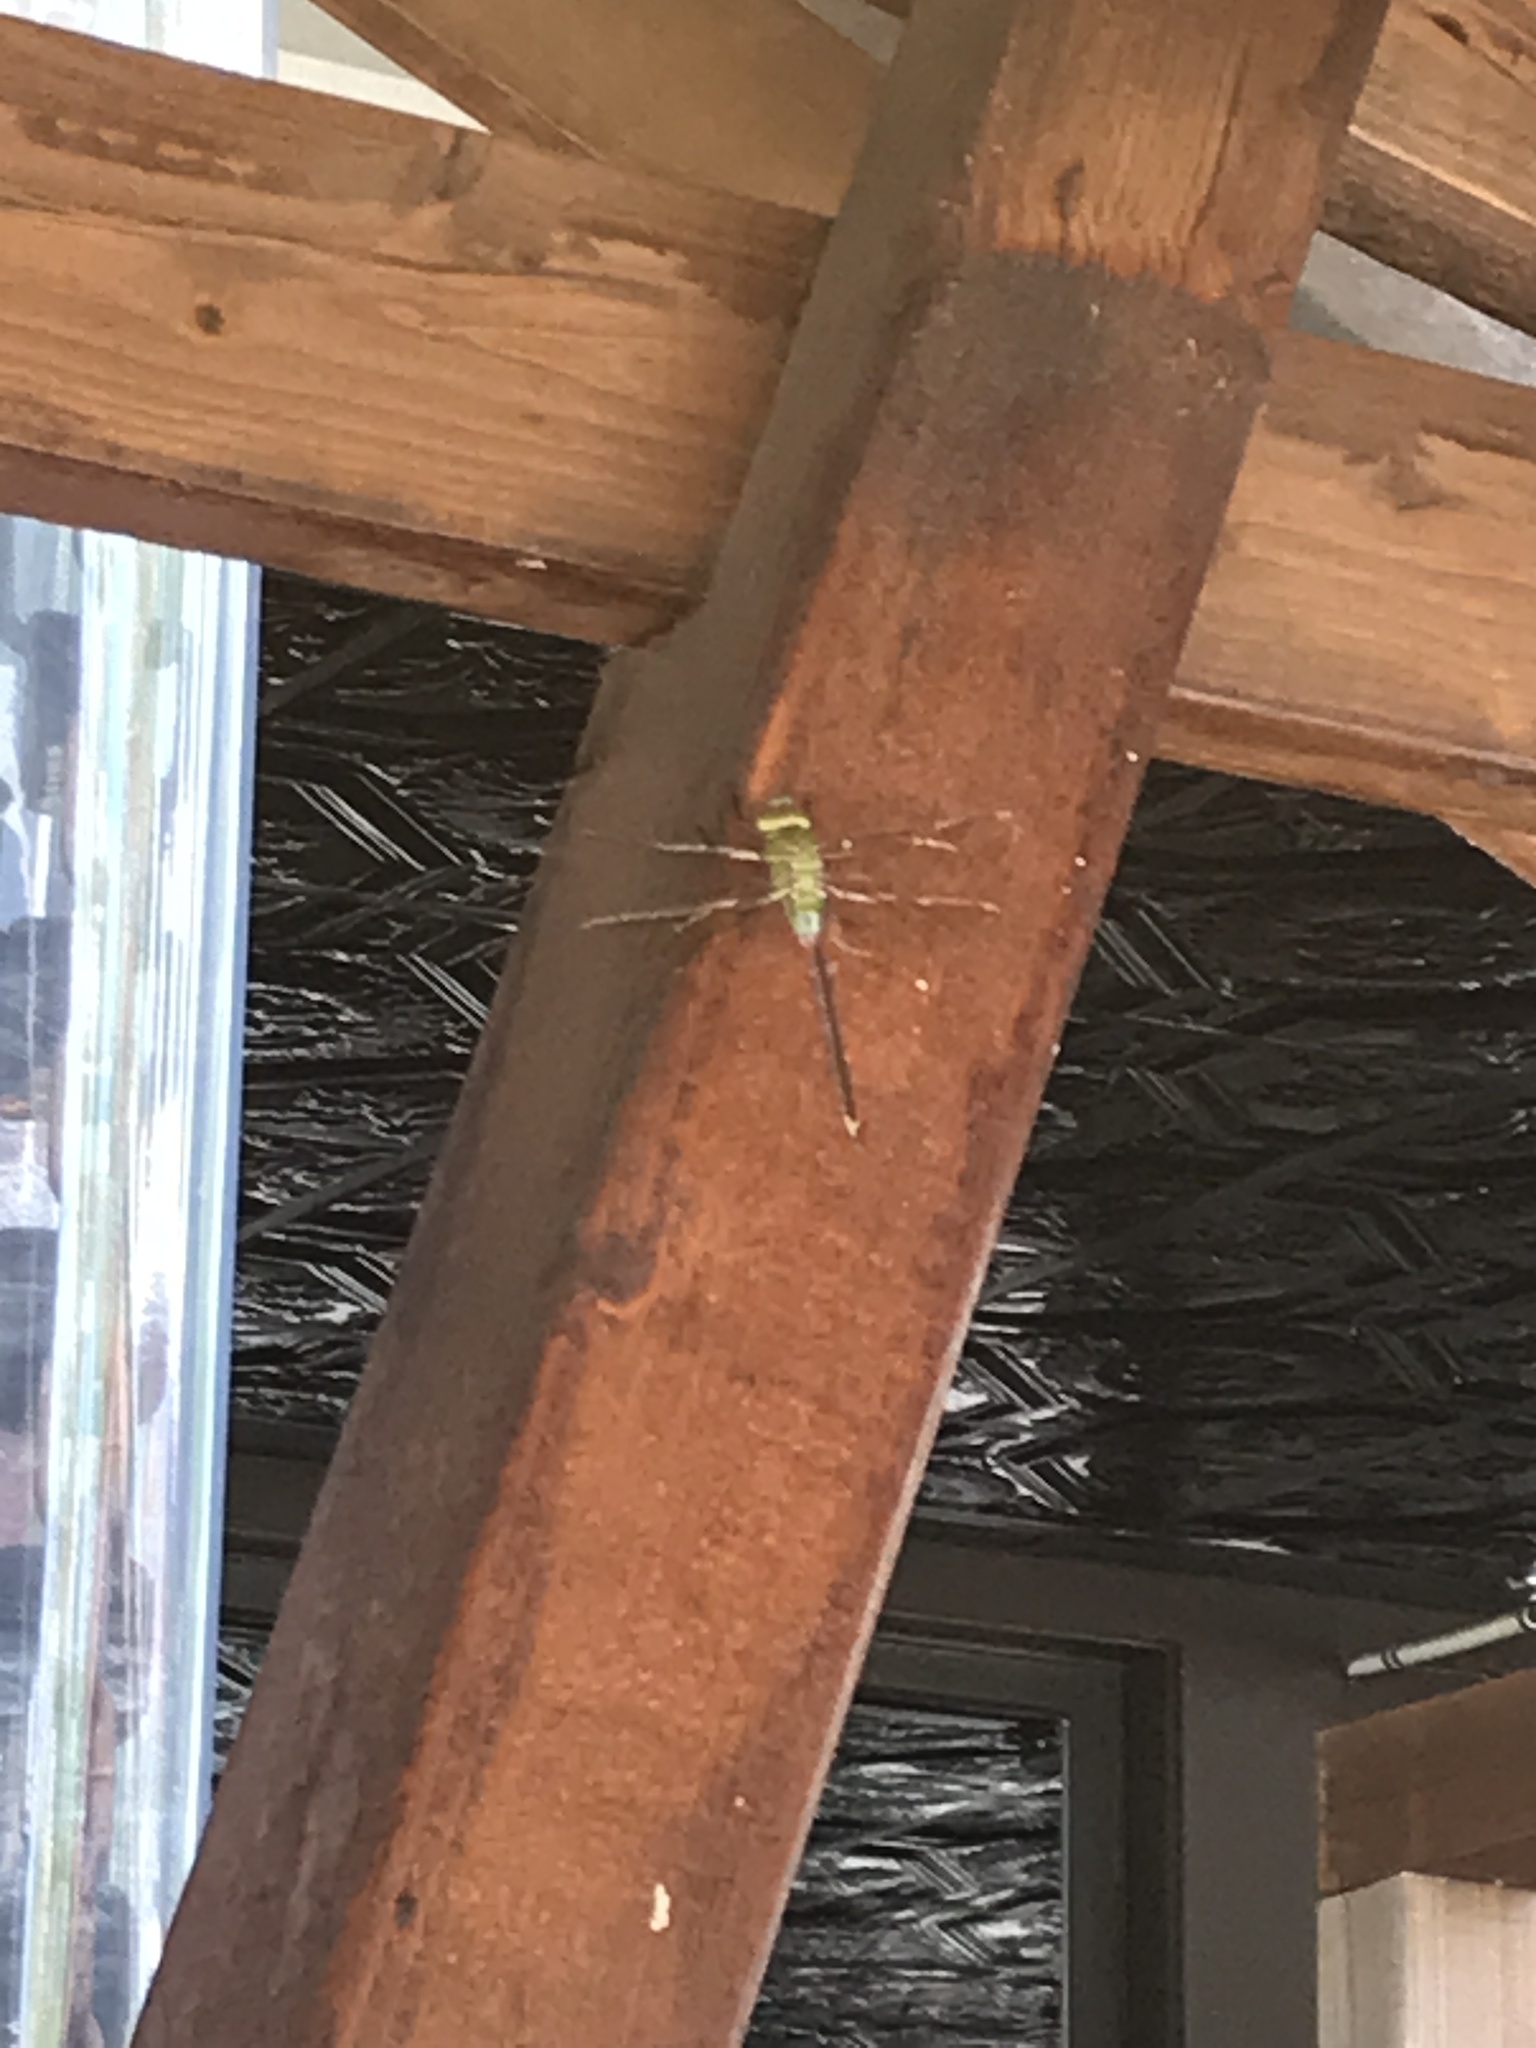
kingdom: Animalia
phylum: Arthropoda
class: Insecta
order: Odonata
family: Aeshnidae
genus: Anax
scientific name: Anax junius
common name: Common green darner
